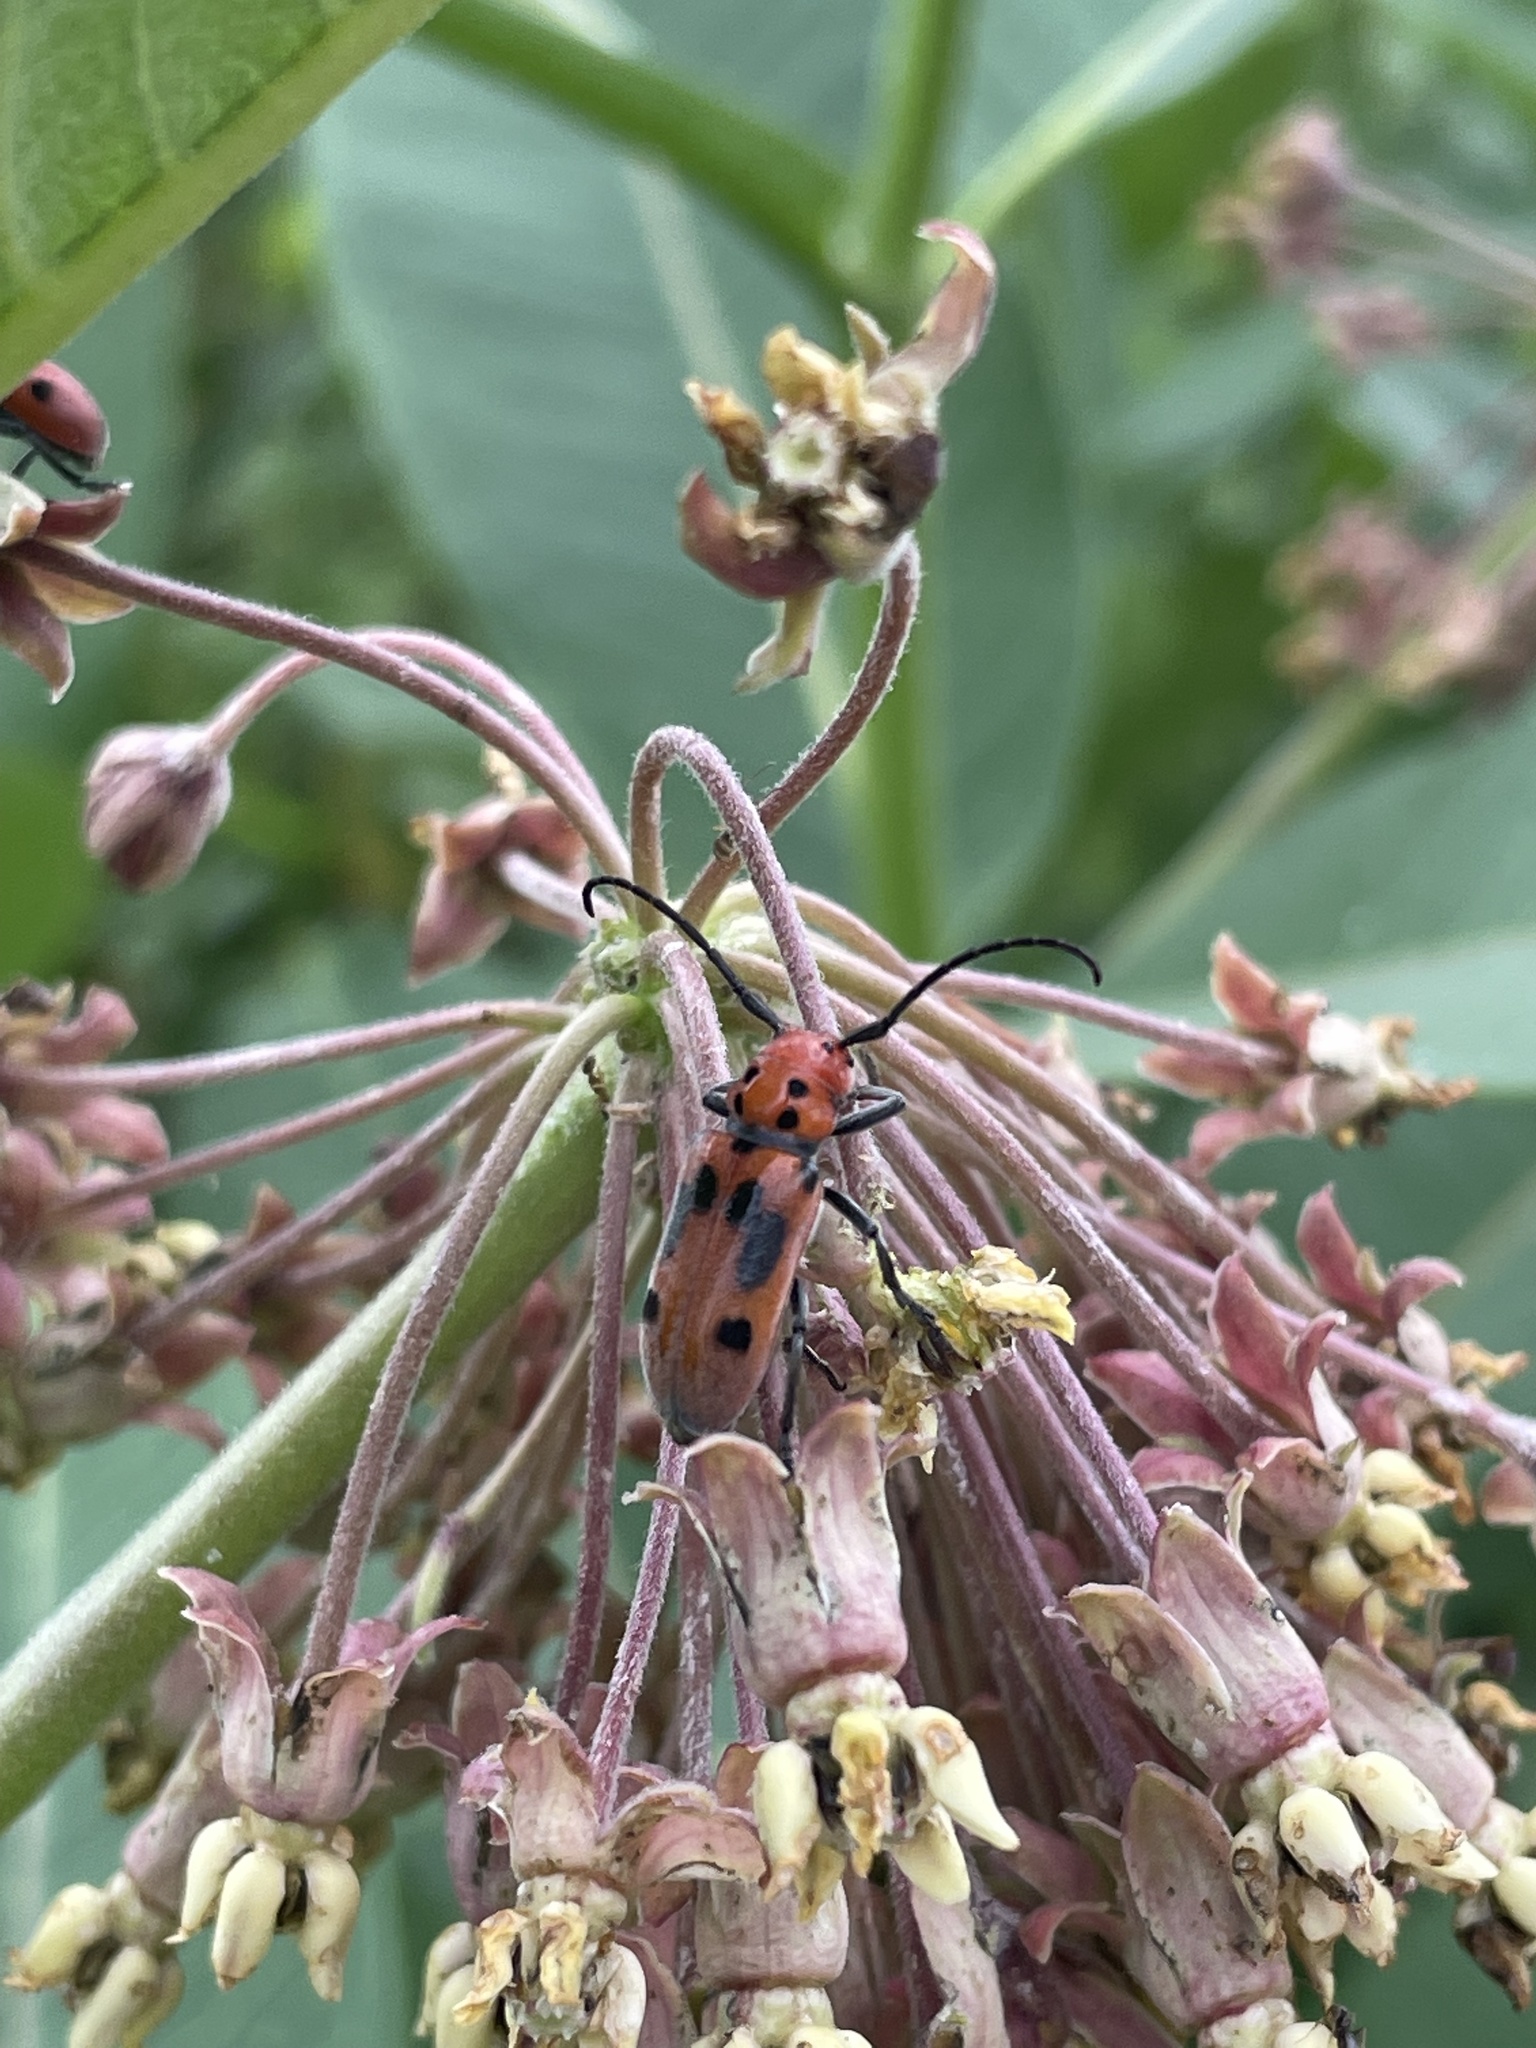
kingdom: Animalia
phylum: Arthropoda
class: Insecta
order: Coleoptera
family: Cerambycidae
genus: Tetraopes
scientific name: Tetraopes tetrophthalmus
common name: Red milkweed beetle
